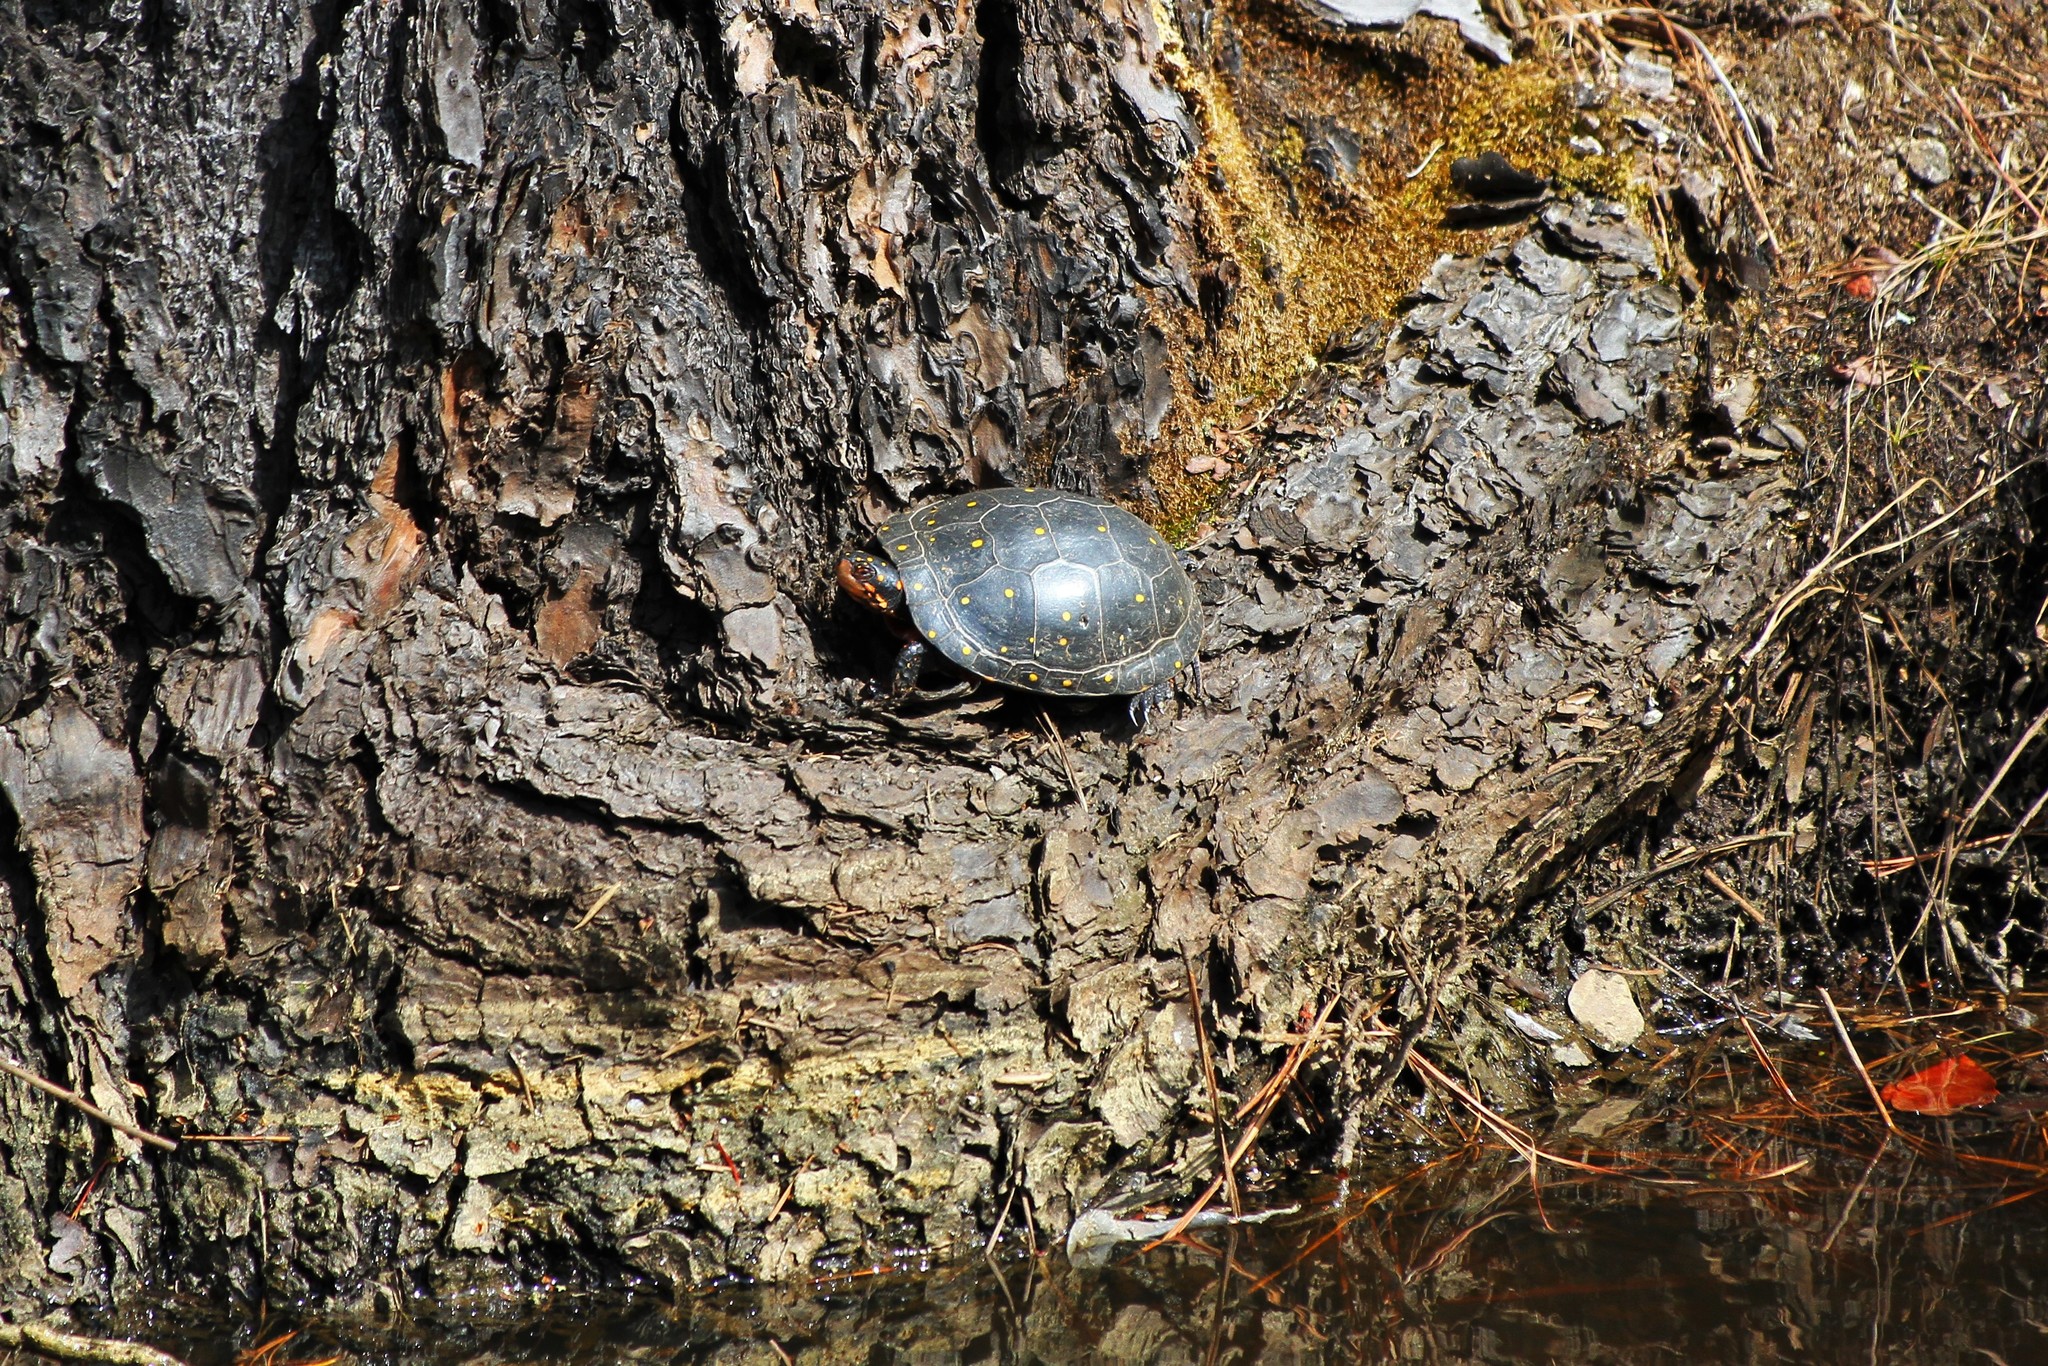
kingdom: Animalia
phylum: Chordata
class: Testudines
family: Emydidae
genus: Clemmys
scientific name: Clemmys guttata
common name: Spotted turtle
